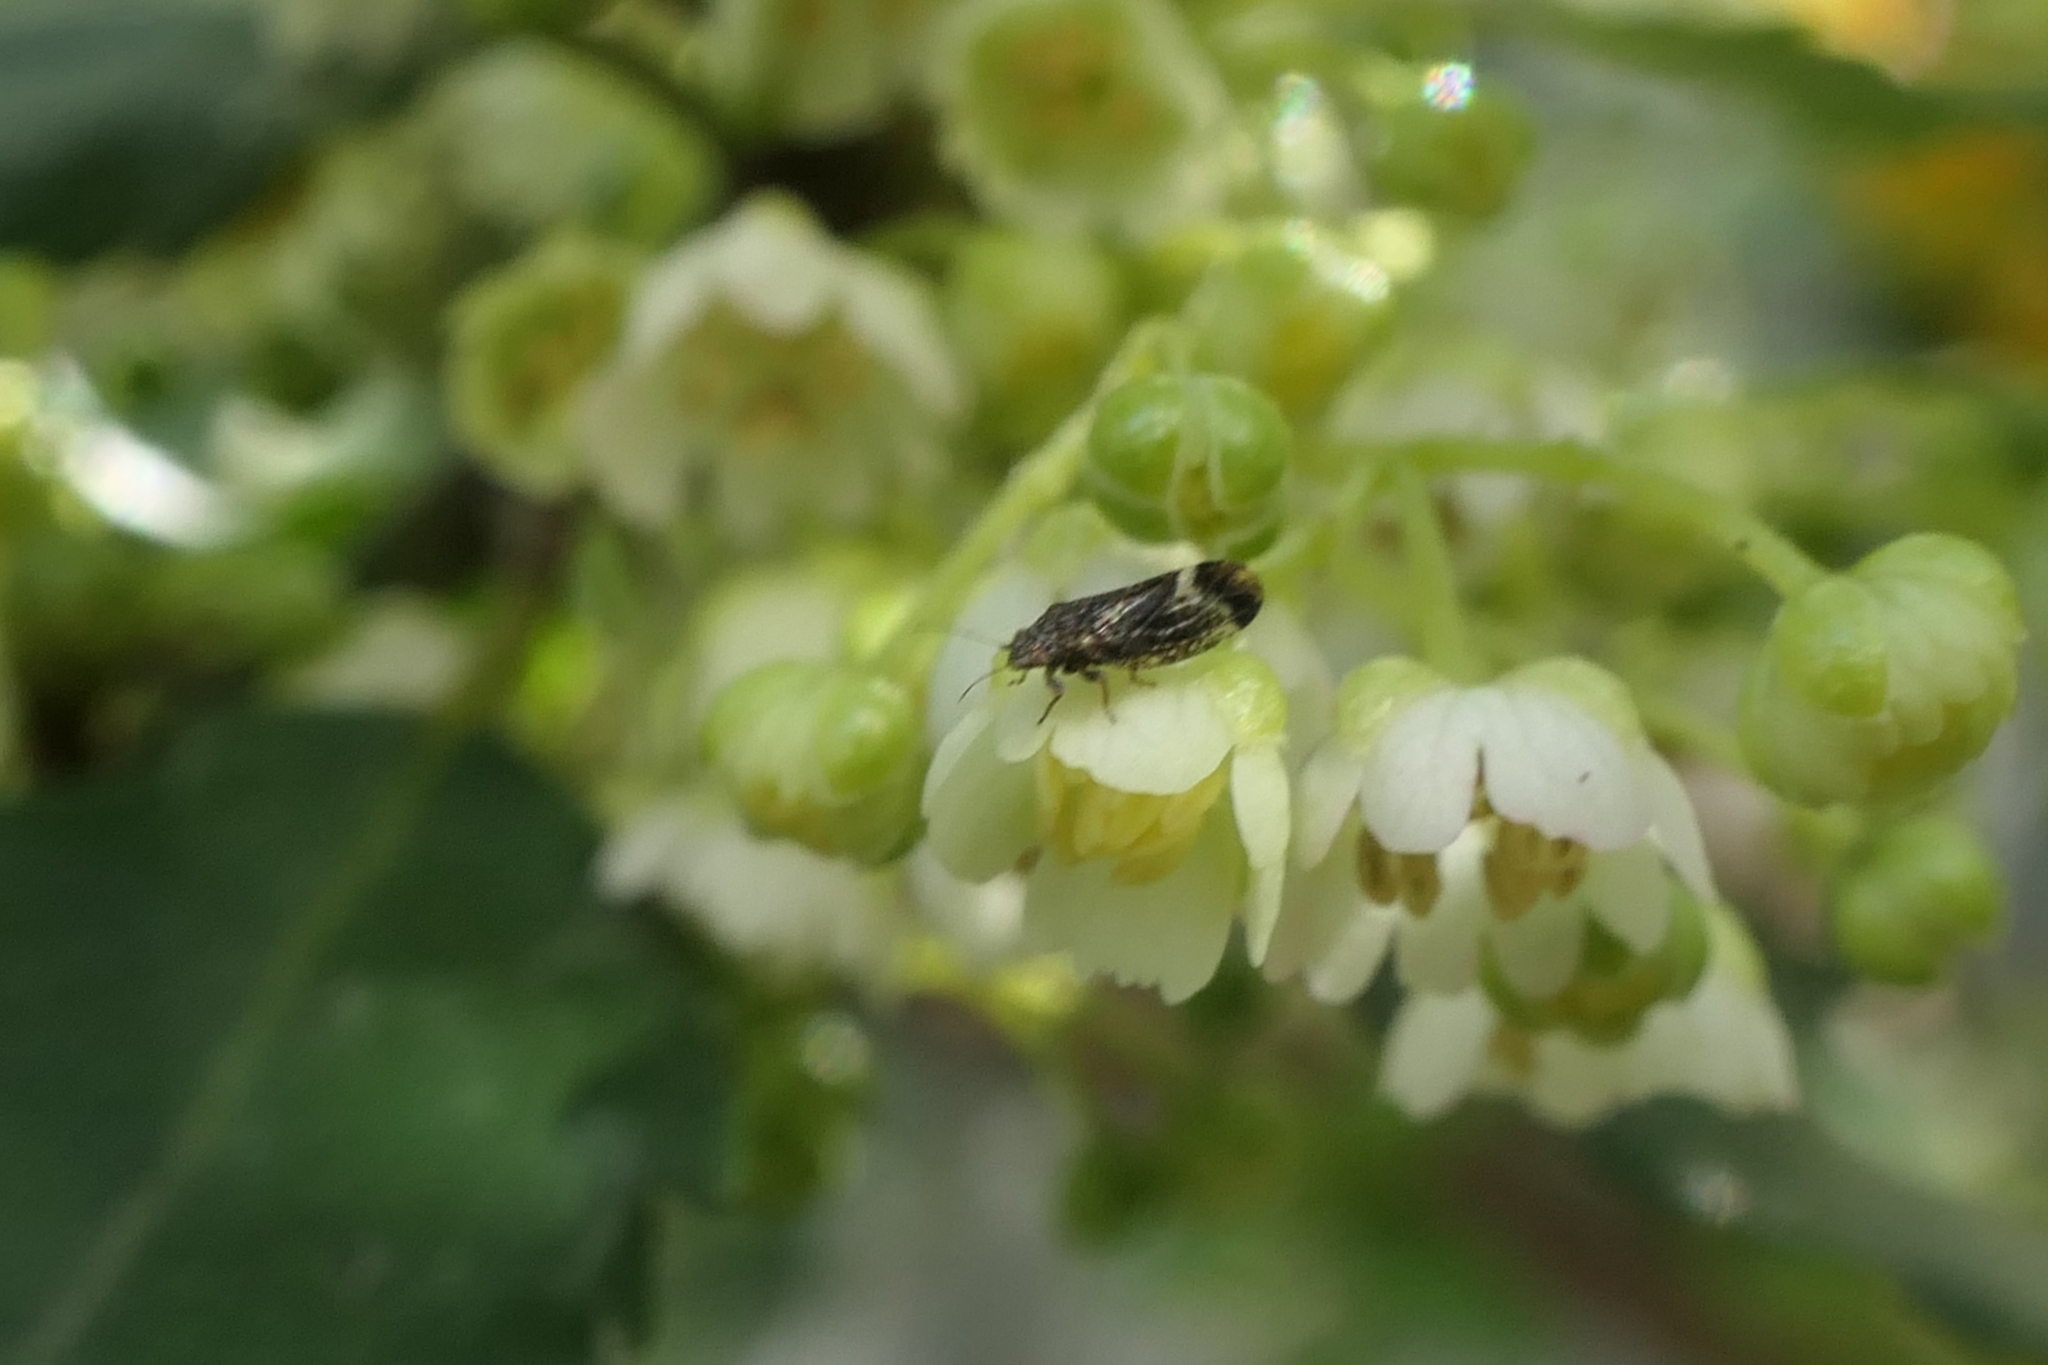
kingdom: Animalia
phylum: Arthropoda
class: Insecta
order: Hemiptera
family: Psyllidae
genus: Acizzia
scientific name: Acizzia apicalis
